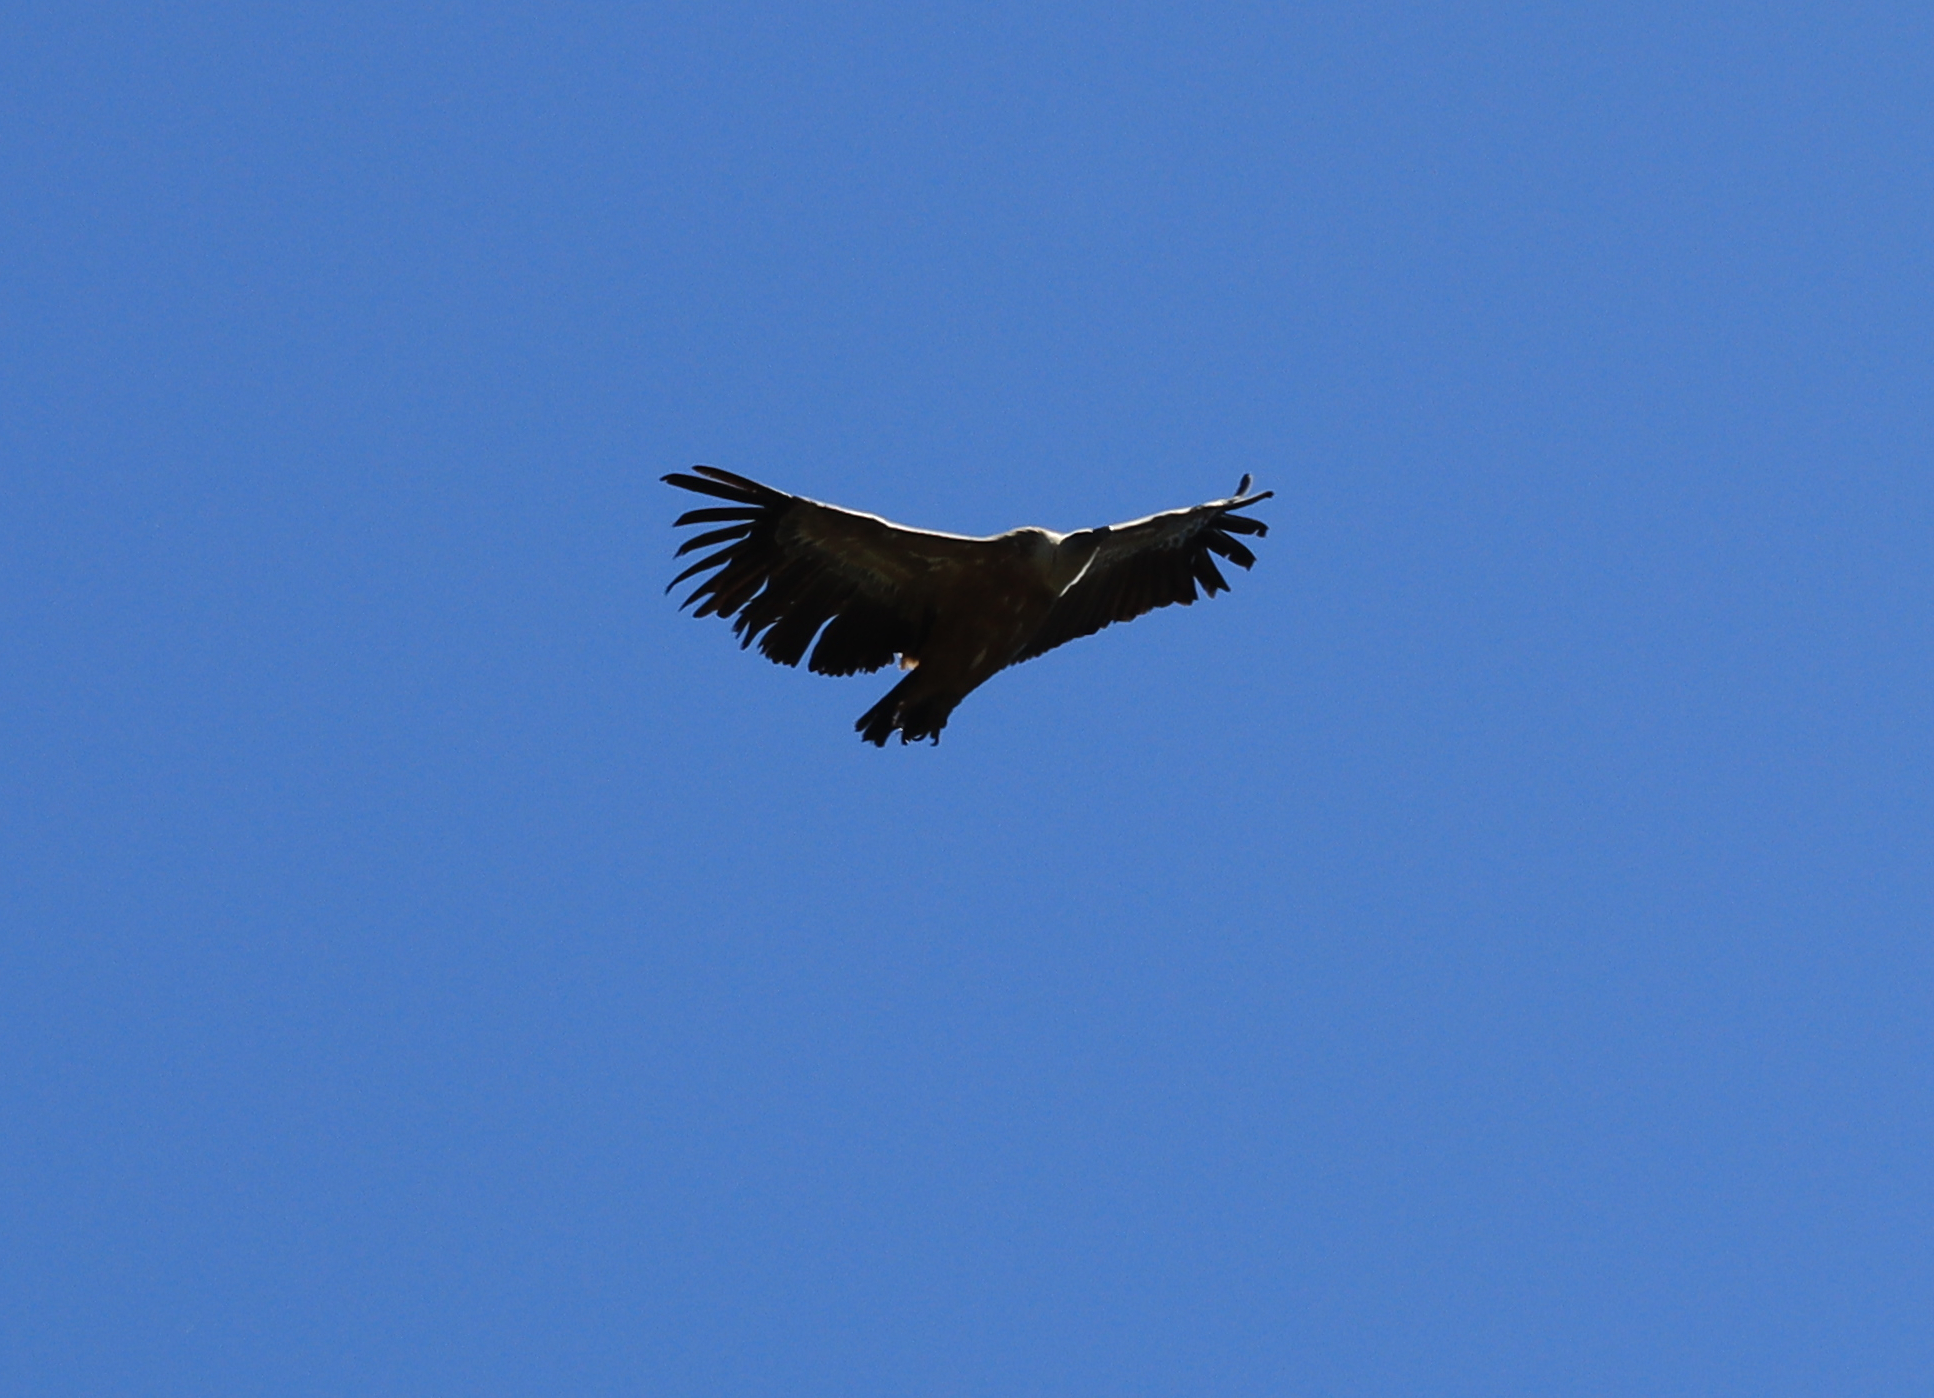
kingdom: Animalia
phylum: Chordata
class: Aves
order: Accipitriformes
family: Accipitridae
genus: Gyps
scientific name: Gyps fulvus
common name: Griffon vulture
